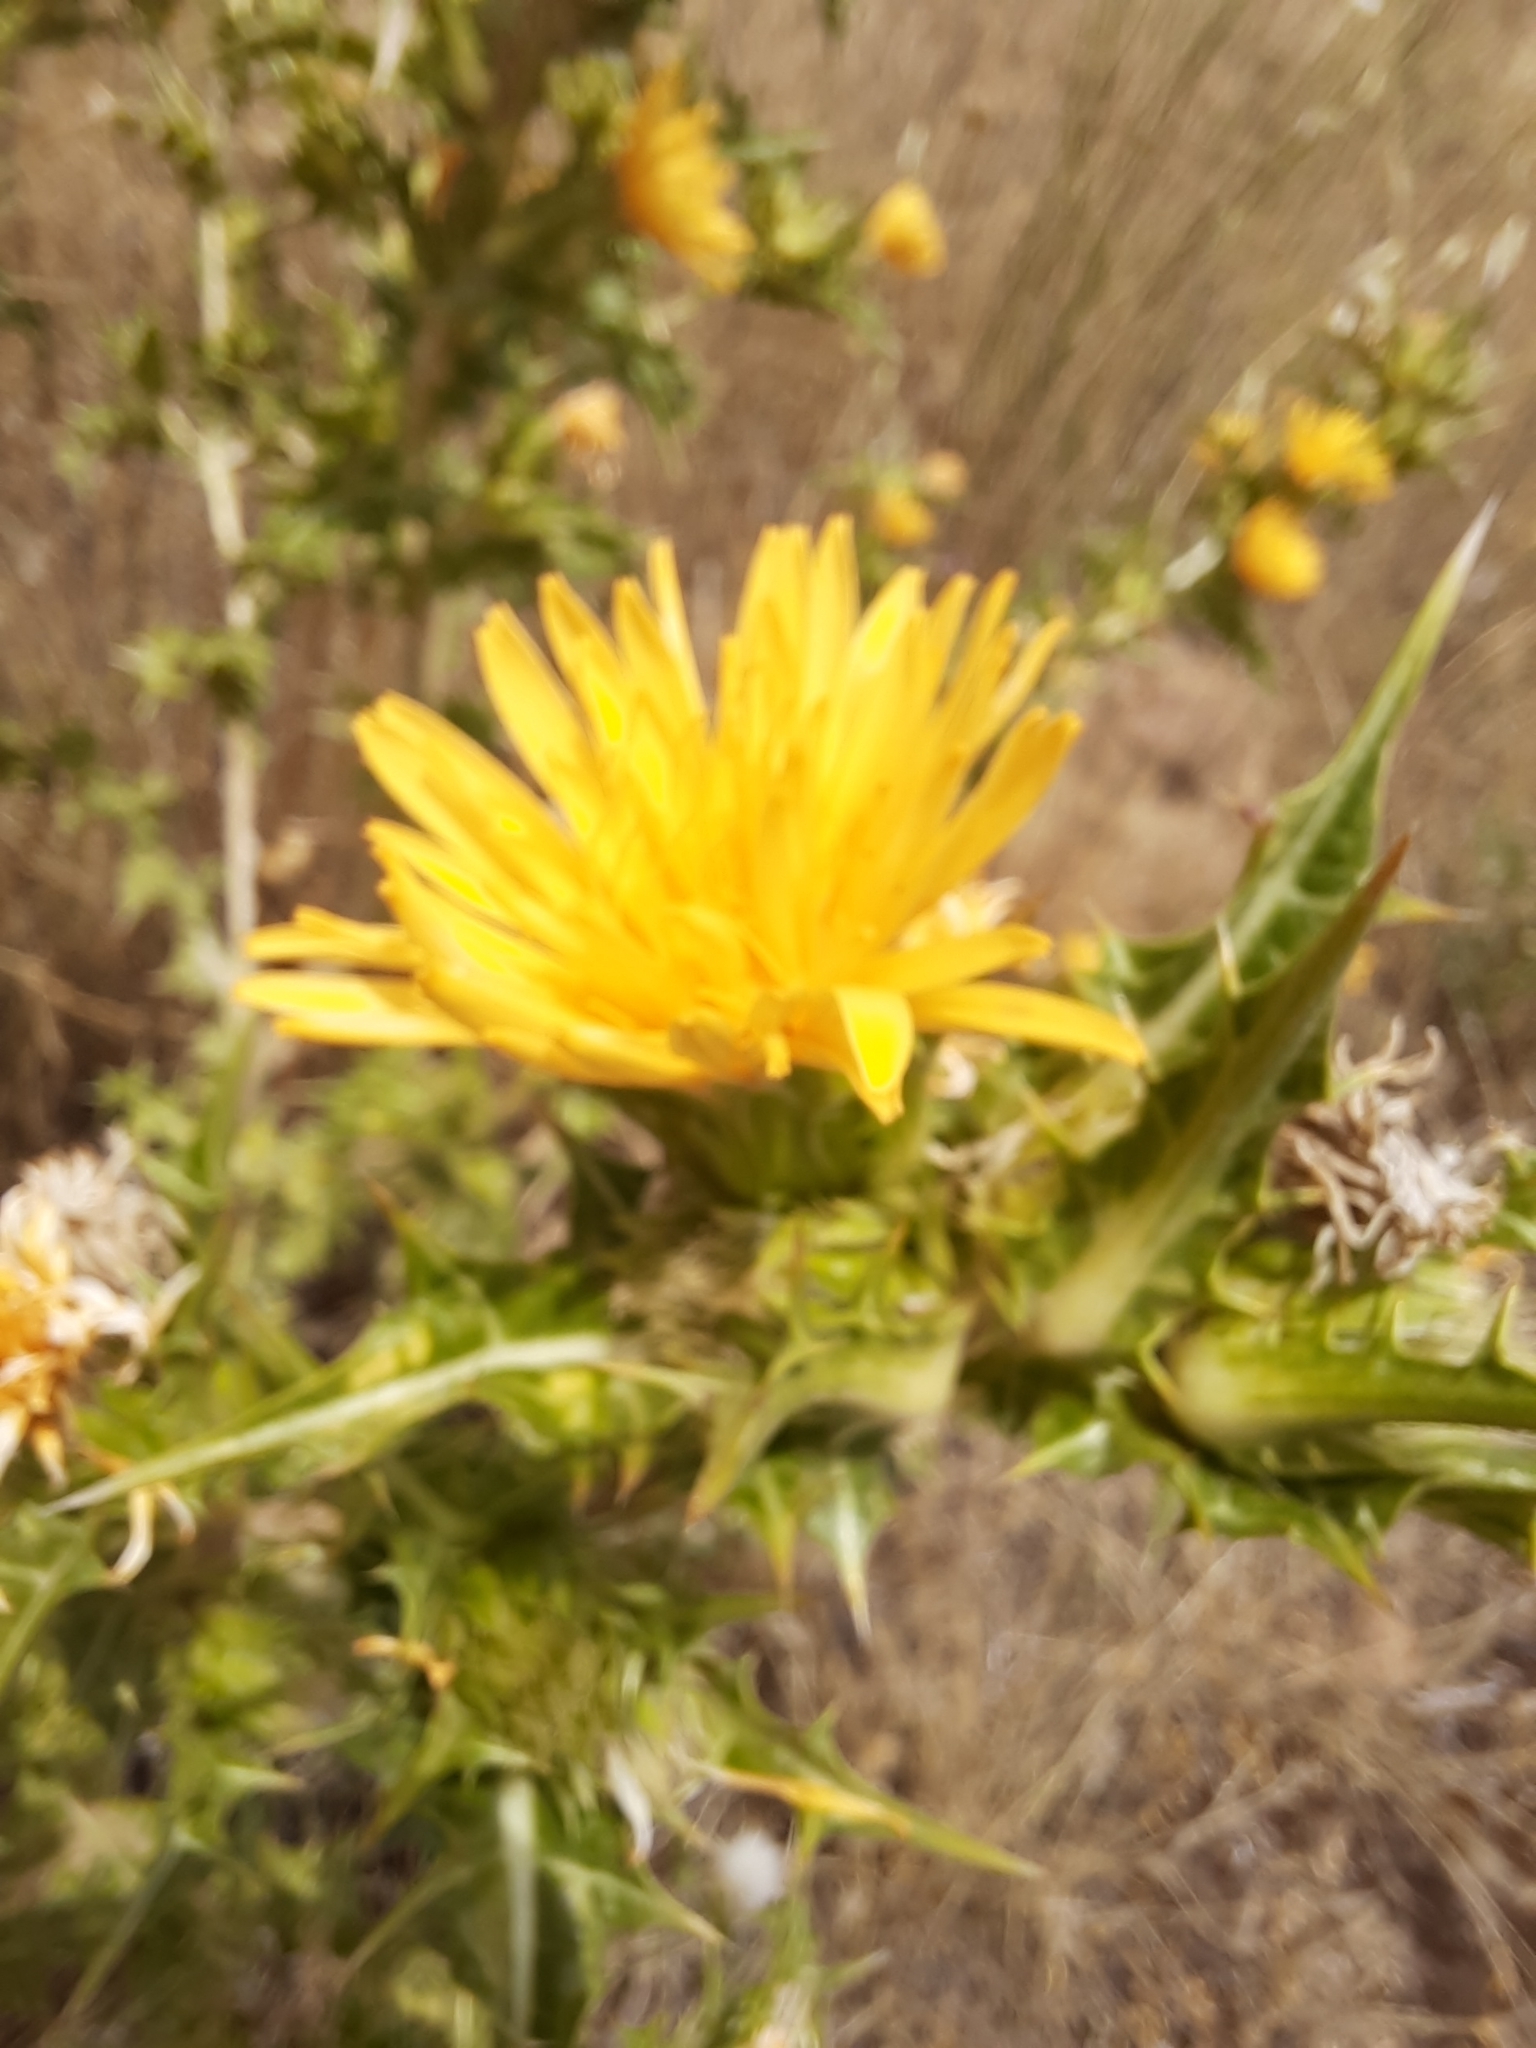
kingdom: Plantae
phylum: Tracheophyta
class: Magnoliopsida
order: Asterales
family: Asteraceae
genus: Scolymus
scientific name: Scolymus hispanicus
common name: Golden thistle
